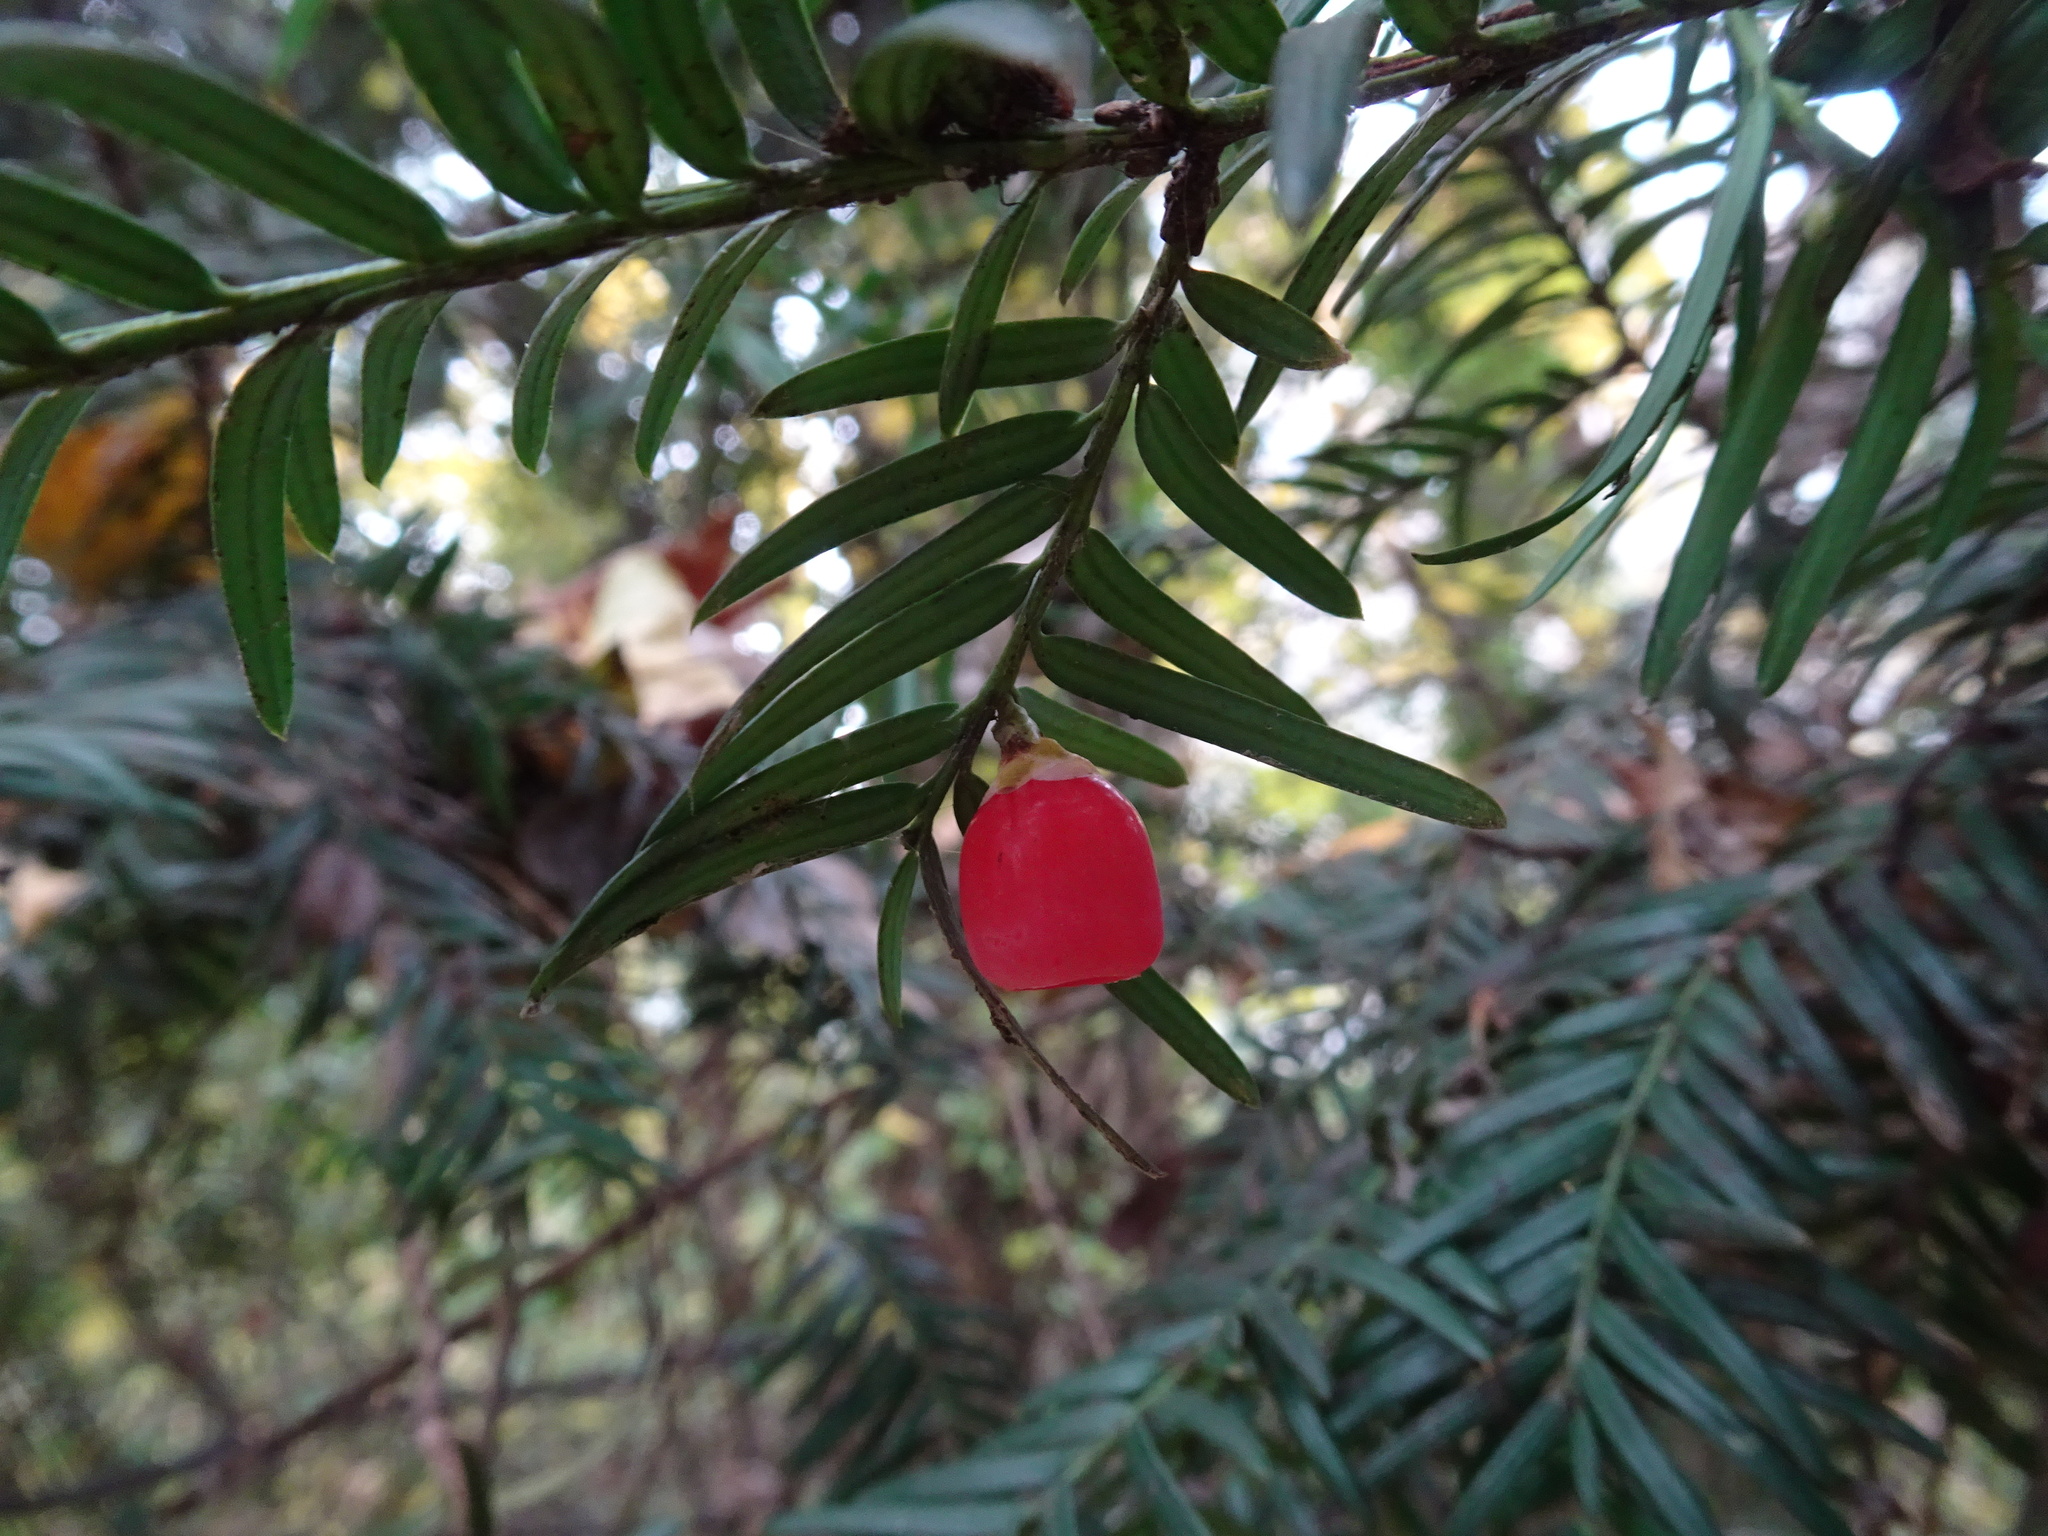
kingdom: Plantae
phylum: Tracheophyta
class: Pinopsida
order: Pinales
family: Taxaceae
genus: Taxus
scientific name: Taxus baccata
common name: Yew
